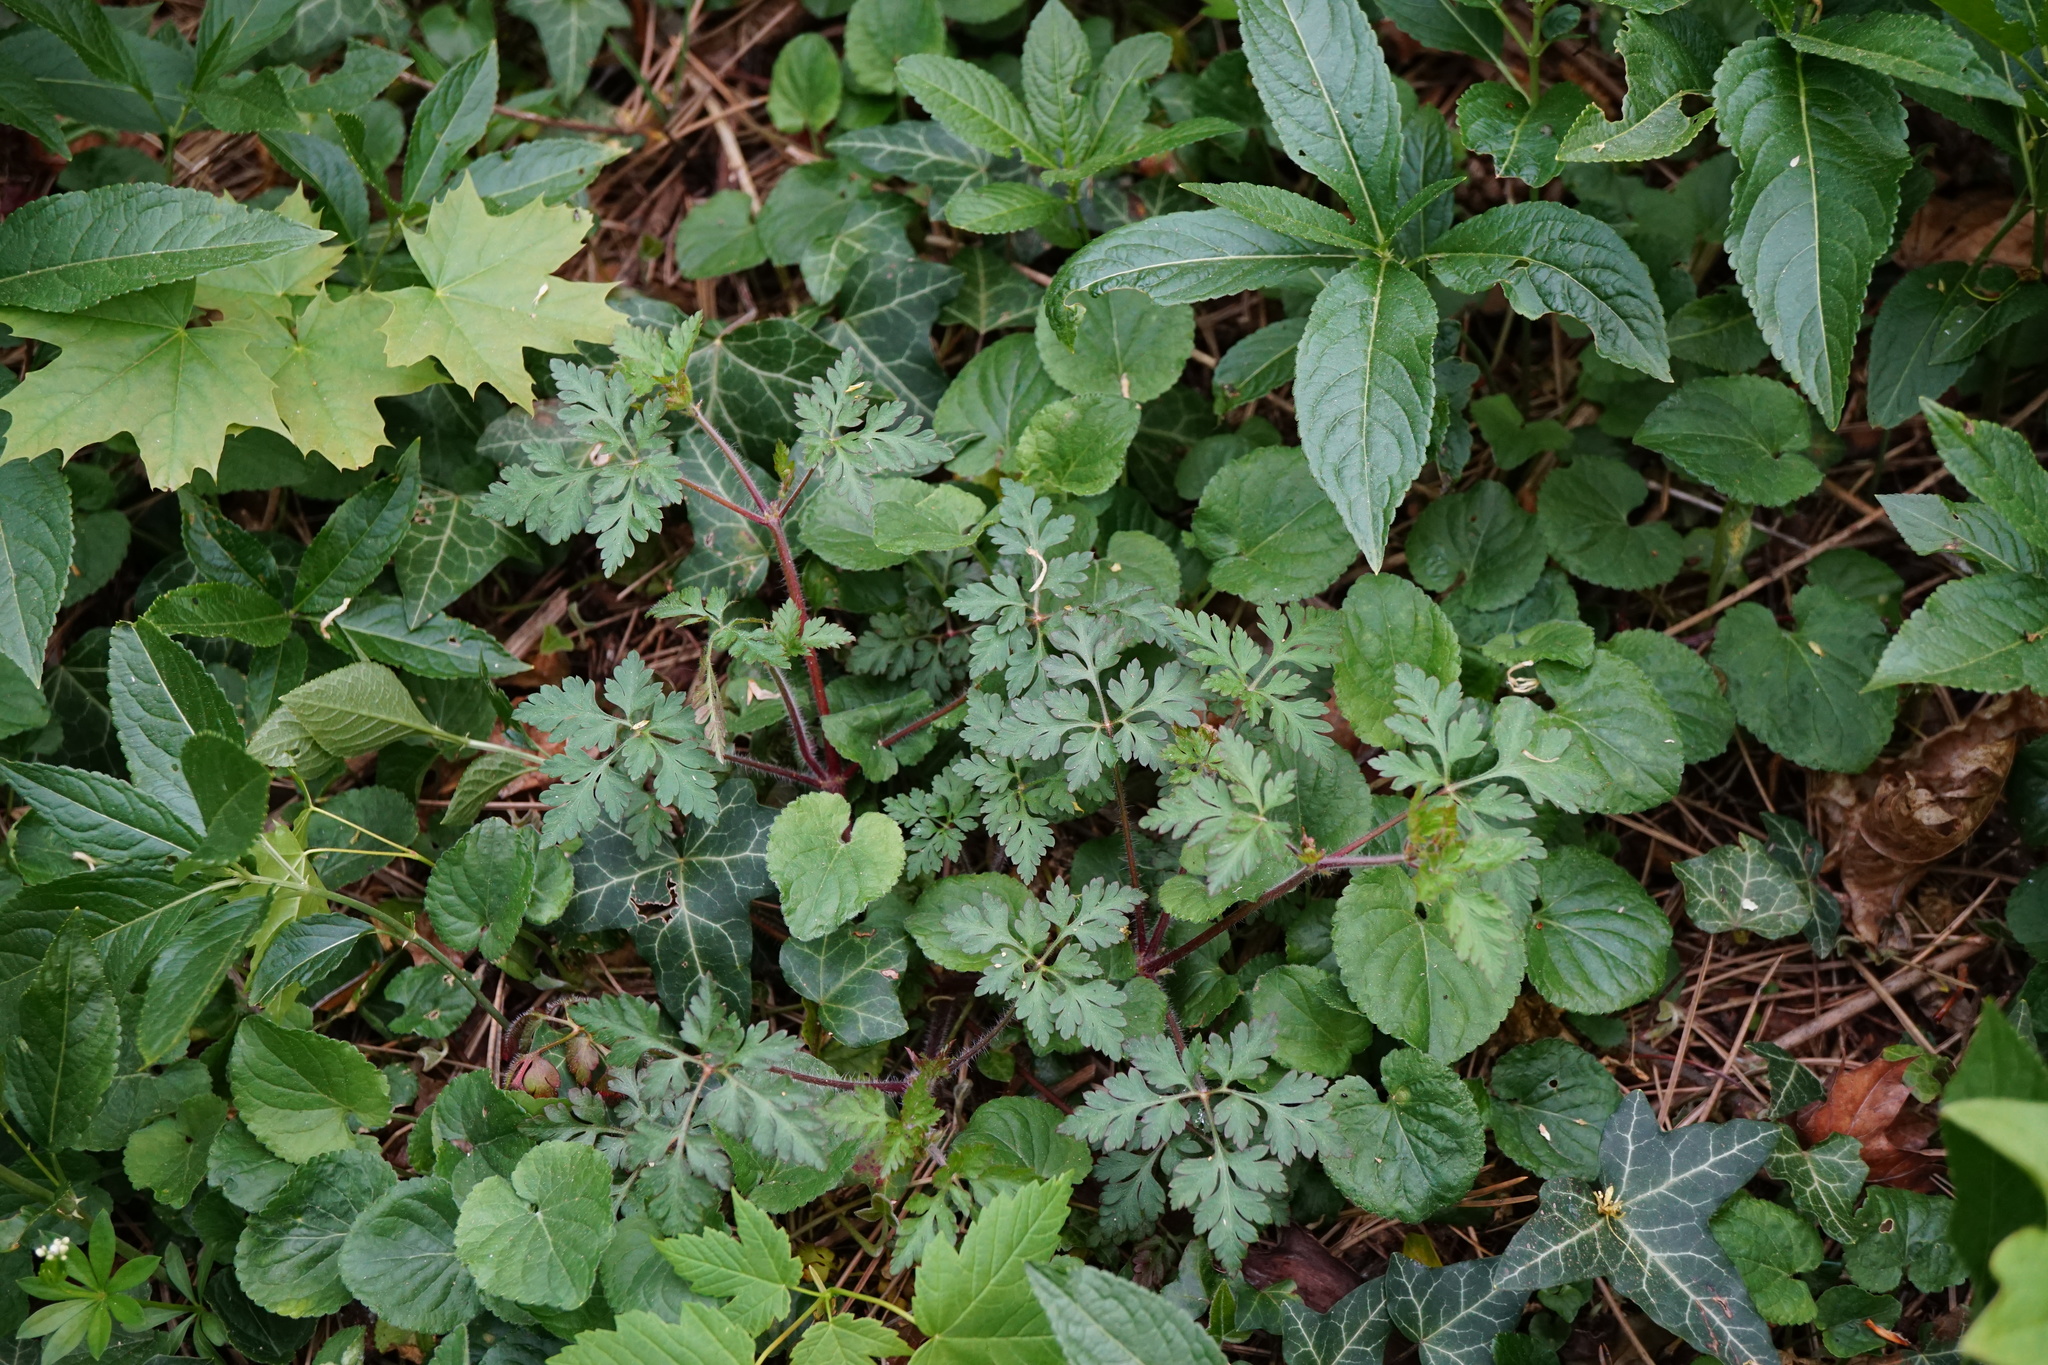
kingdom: Plantae
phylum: Tracheophyta
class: Magnoliopsida
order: Geraniales
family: Geraniaceae
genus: Geranium
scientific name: Geranium robertianum
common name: Herb-robert
